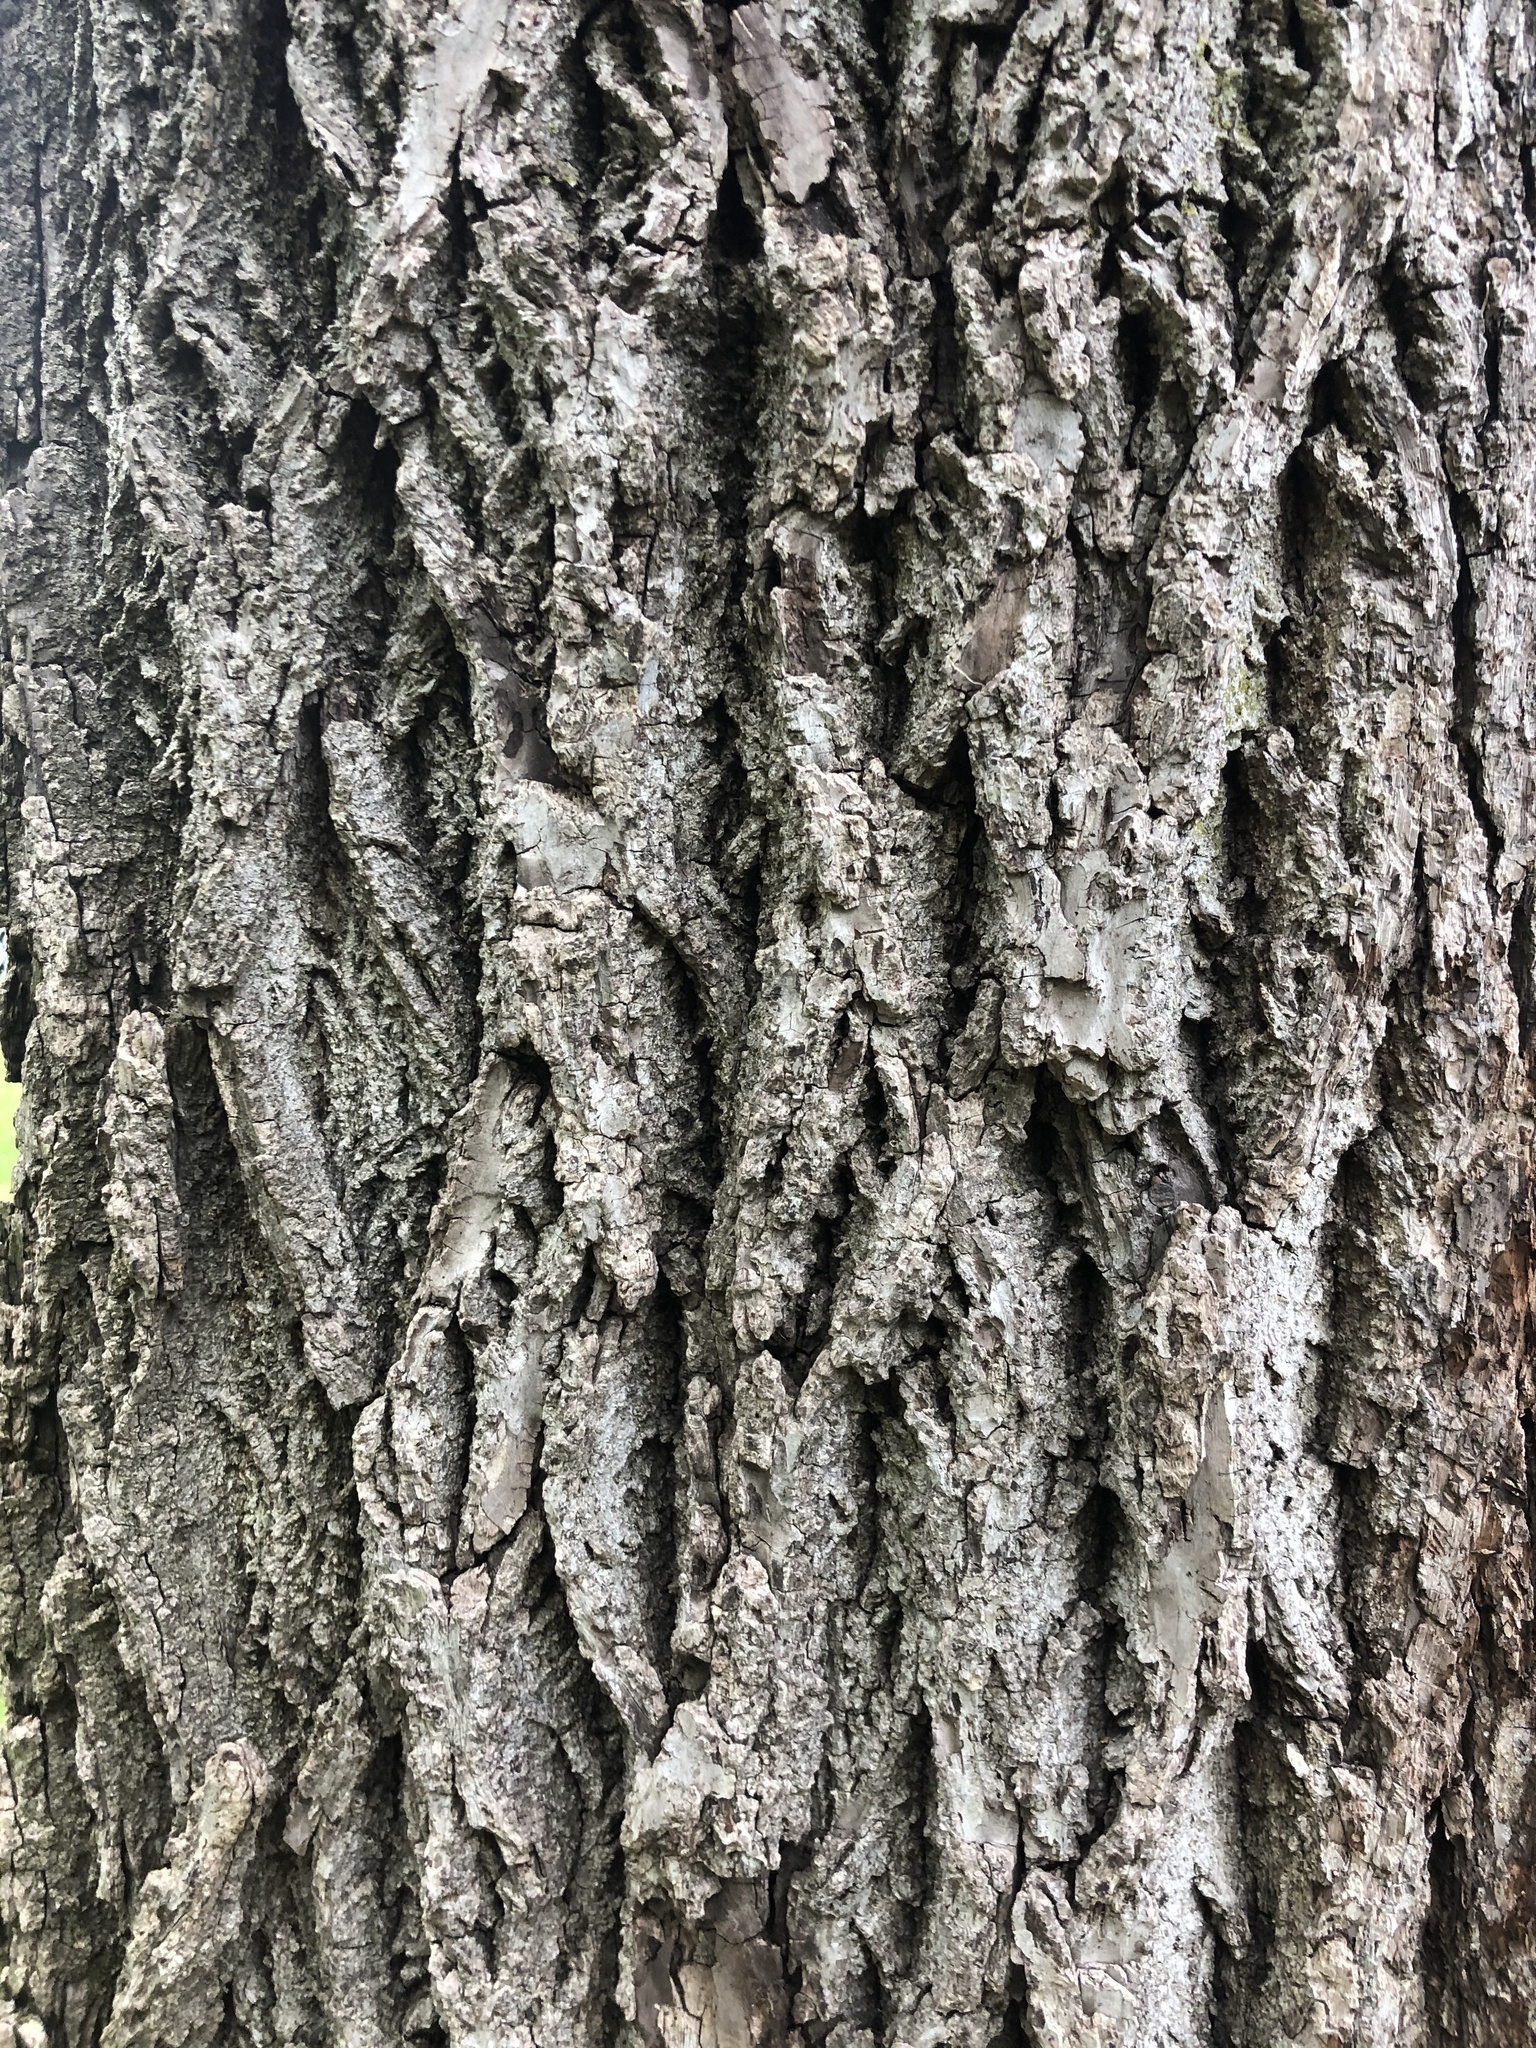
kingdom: Plantae
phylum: Tracheophyta
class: Magnoliopsida
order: Fagales
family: Juglandaceae
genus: Juglans
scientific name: Juglans nigra
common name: Black walnut
